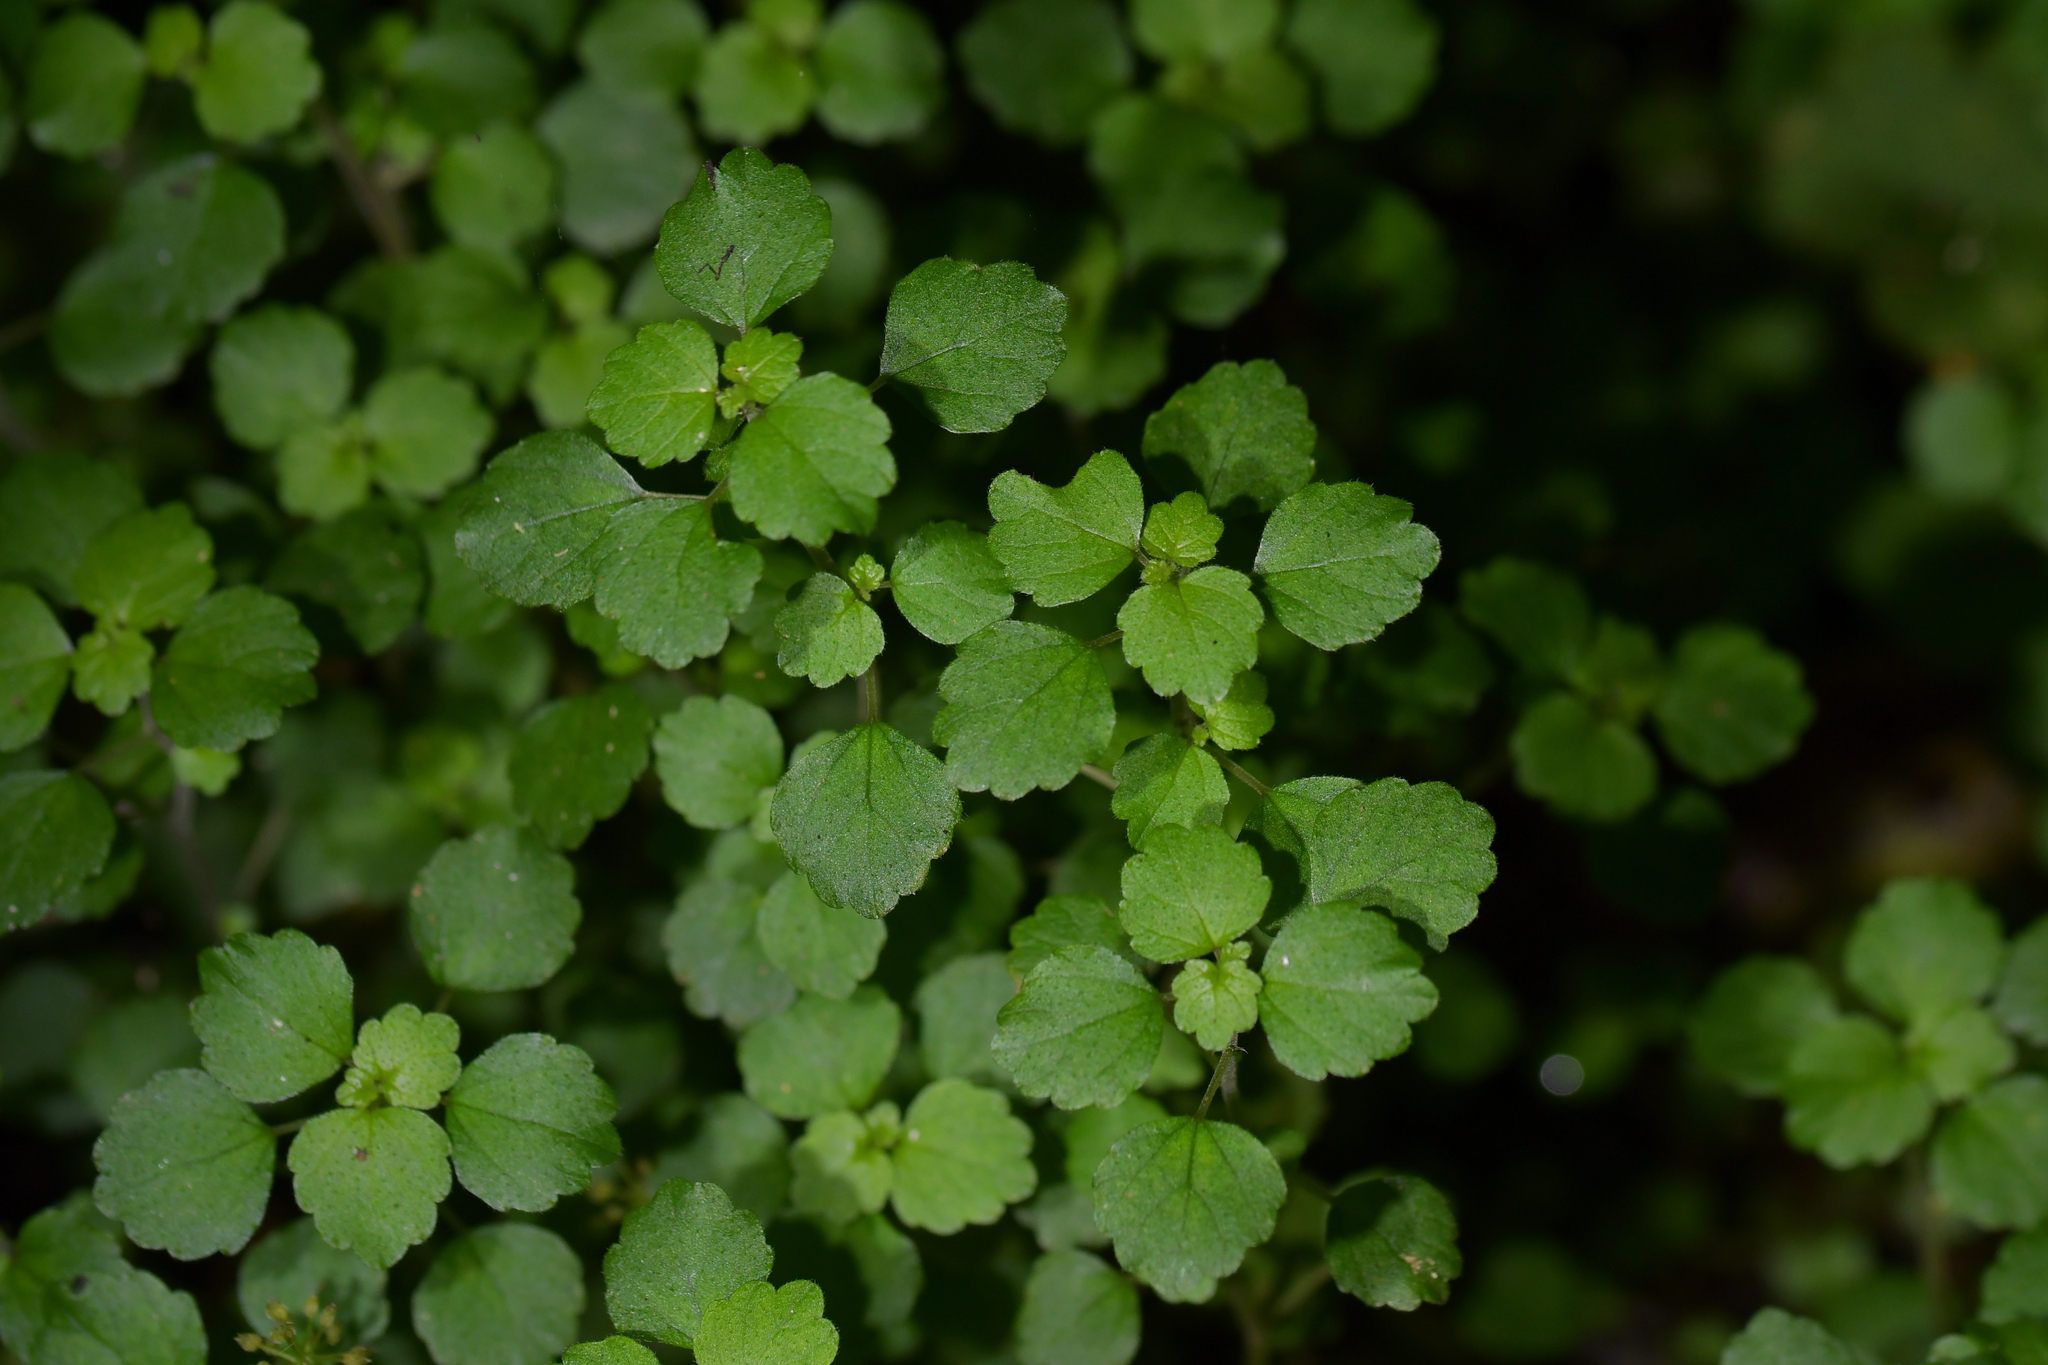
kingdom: Plantae
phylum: Tracheophyta
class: Magnoliopsida
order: Rosales
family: Urticaceae
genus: Australina
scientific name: Australina pusilla
